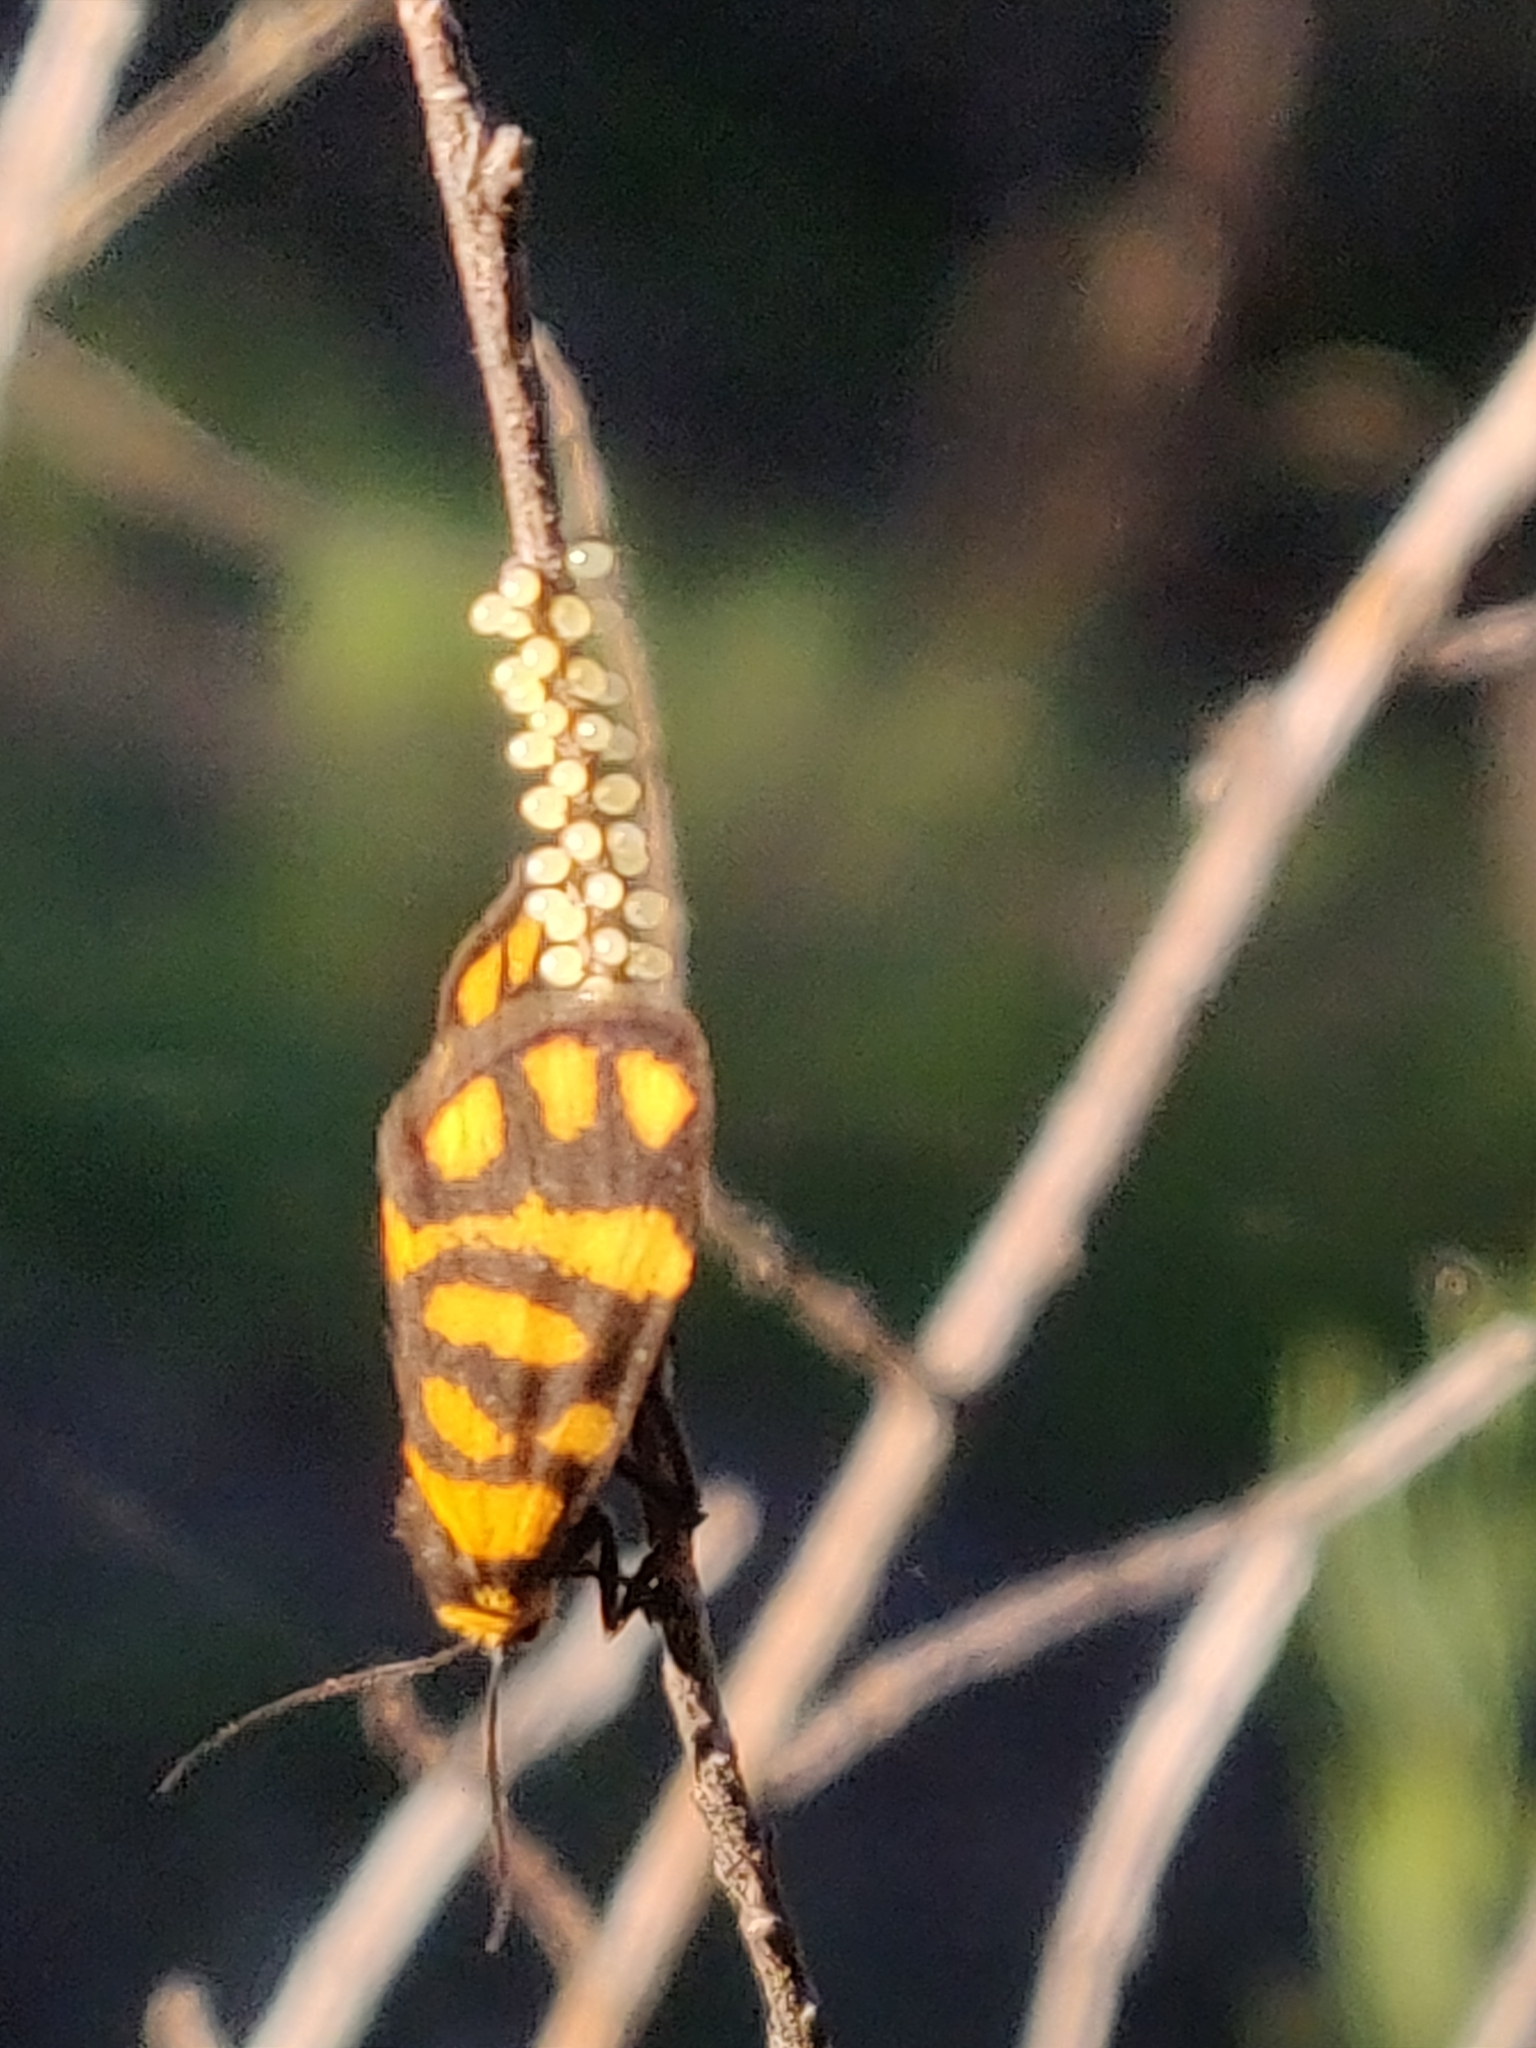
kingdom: Animalia
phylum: Arthropoda
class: Insecta
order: Lepidoptera
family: Erebidae
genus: Asura
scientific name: Asura lydia
